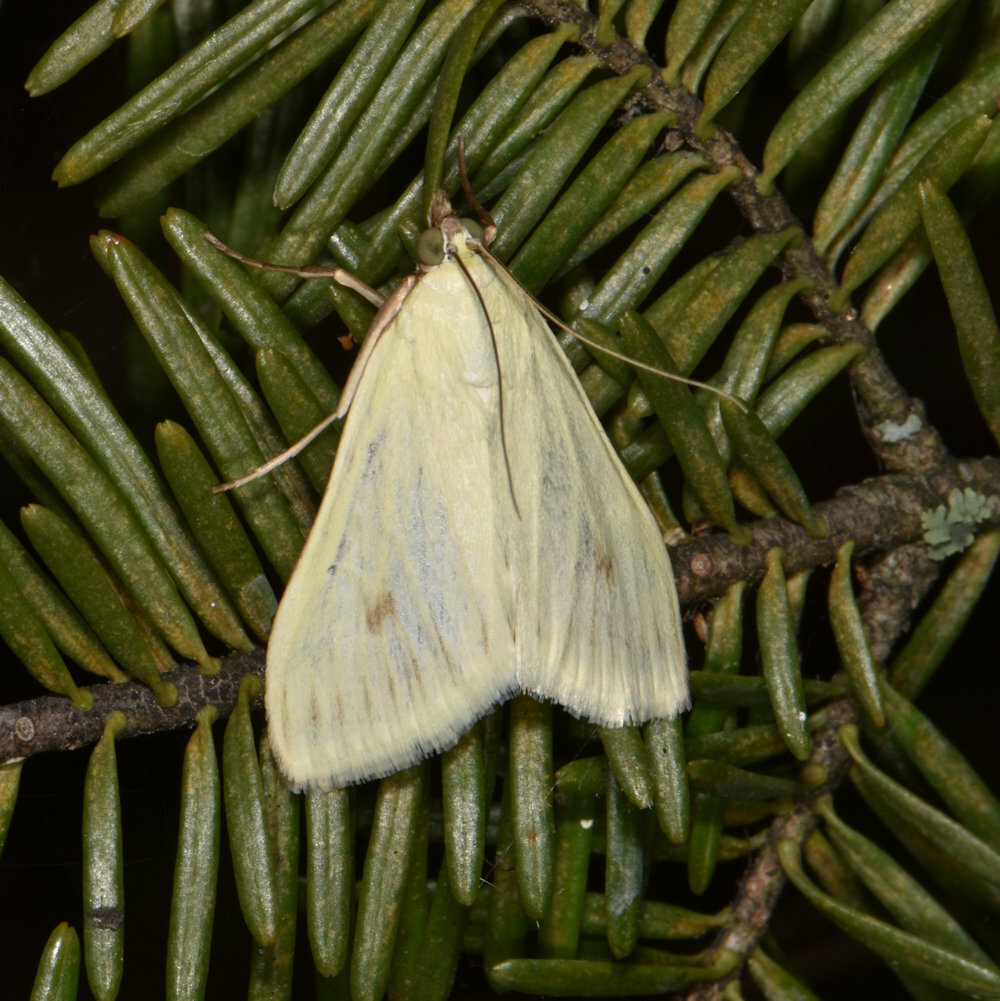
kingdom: Animalia
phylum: Arthropoda
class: Insecta
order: Lepidoptera
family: Crambidae
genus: Sitochroa
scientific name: Sitochroa palealis
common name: Greenish-yellow sitochroa moth
